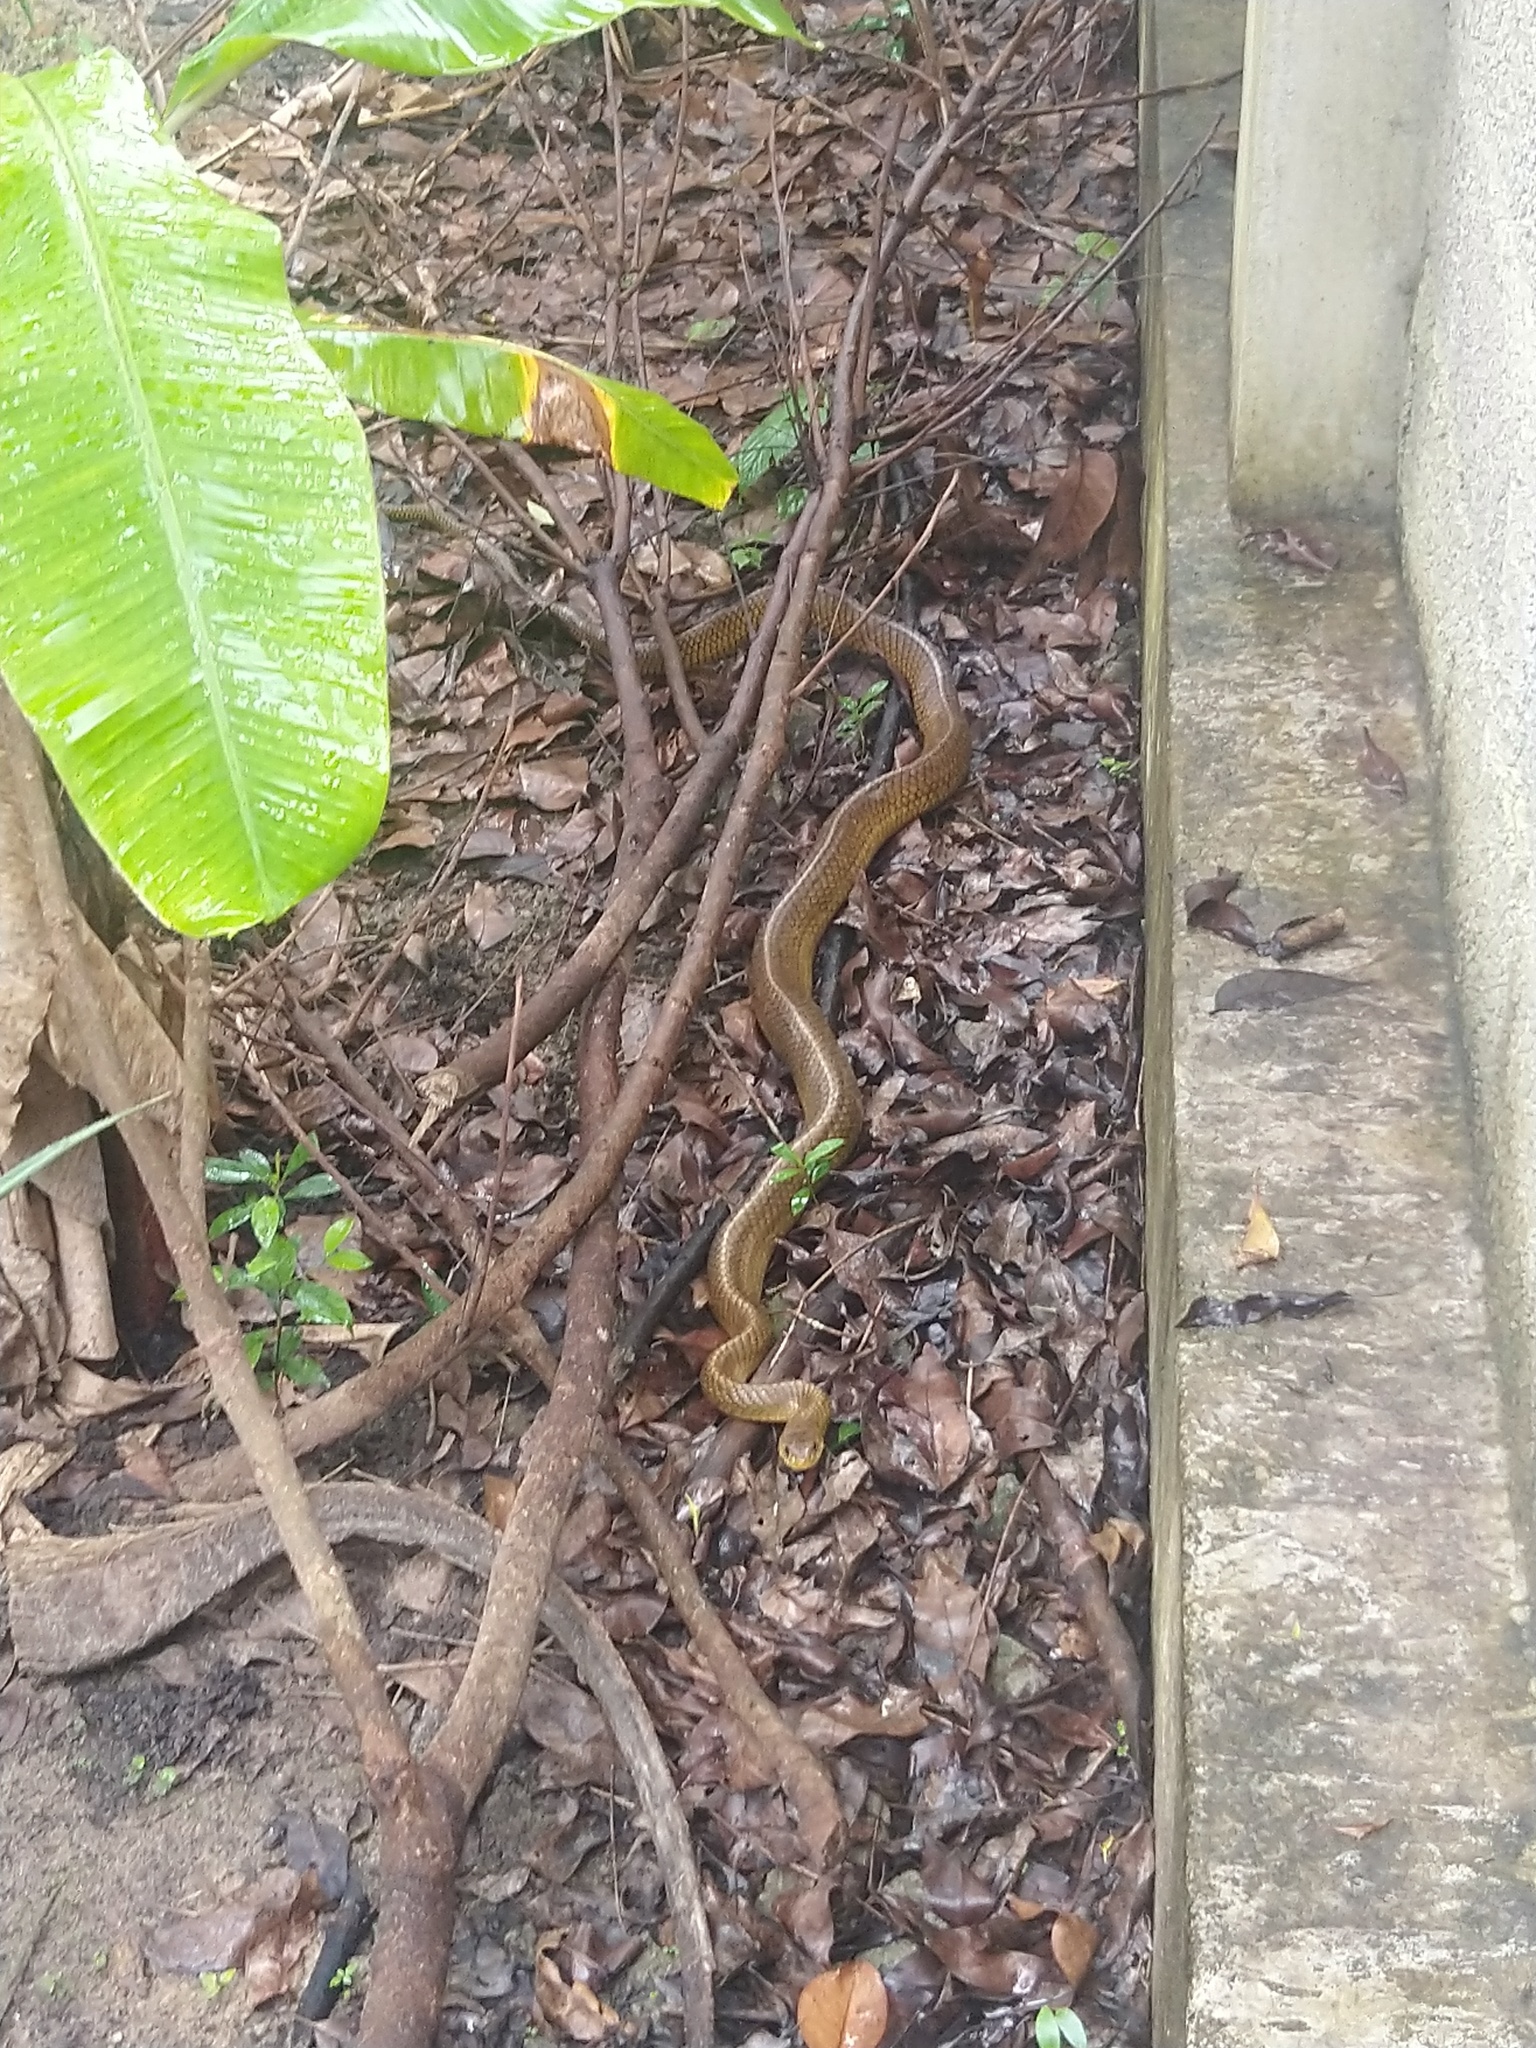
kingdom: Animalia
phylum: Chordata
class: Squamata
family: Colubridae
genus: Ptyas
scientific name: Ptyas mucosa
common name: Oriental ratsnake
